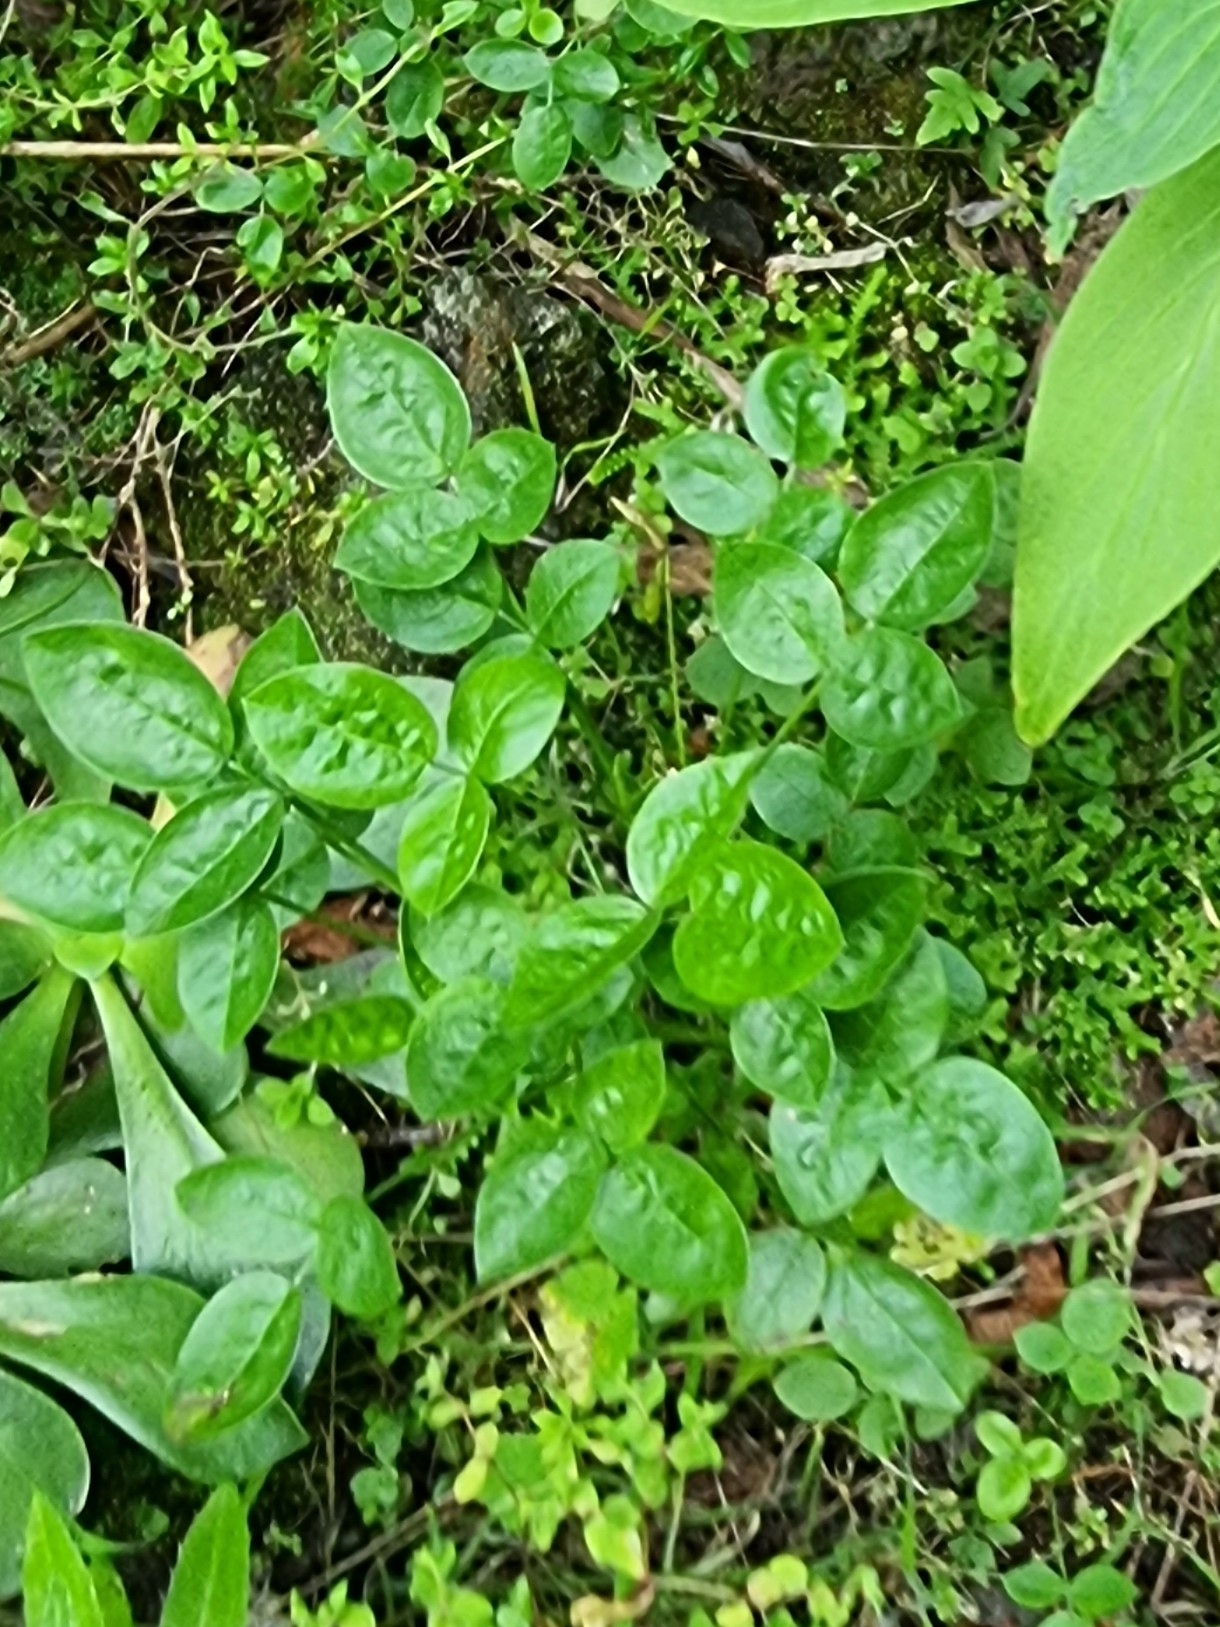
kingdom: Plantae
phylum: Tracheophyta
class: Magnoliopsida
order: Fabales
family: Fabaceae
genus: Bituminaria
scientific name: Bituminaria bituminosa
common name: Arabian pea
